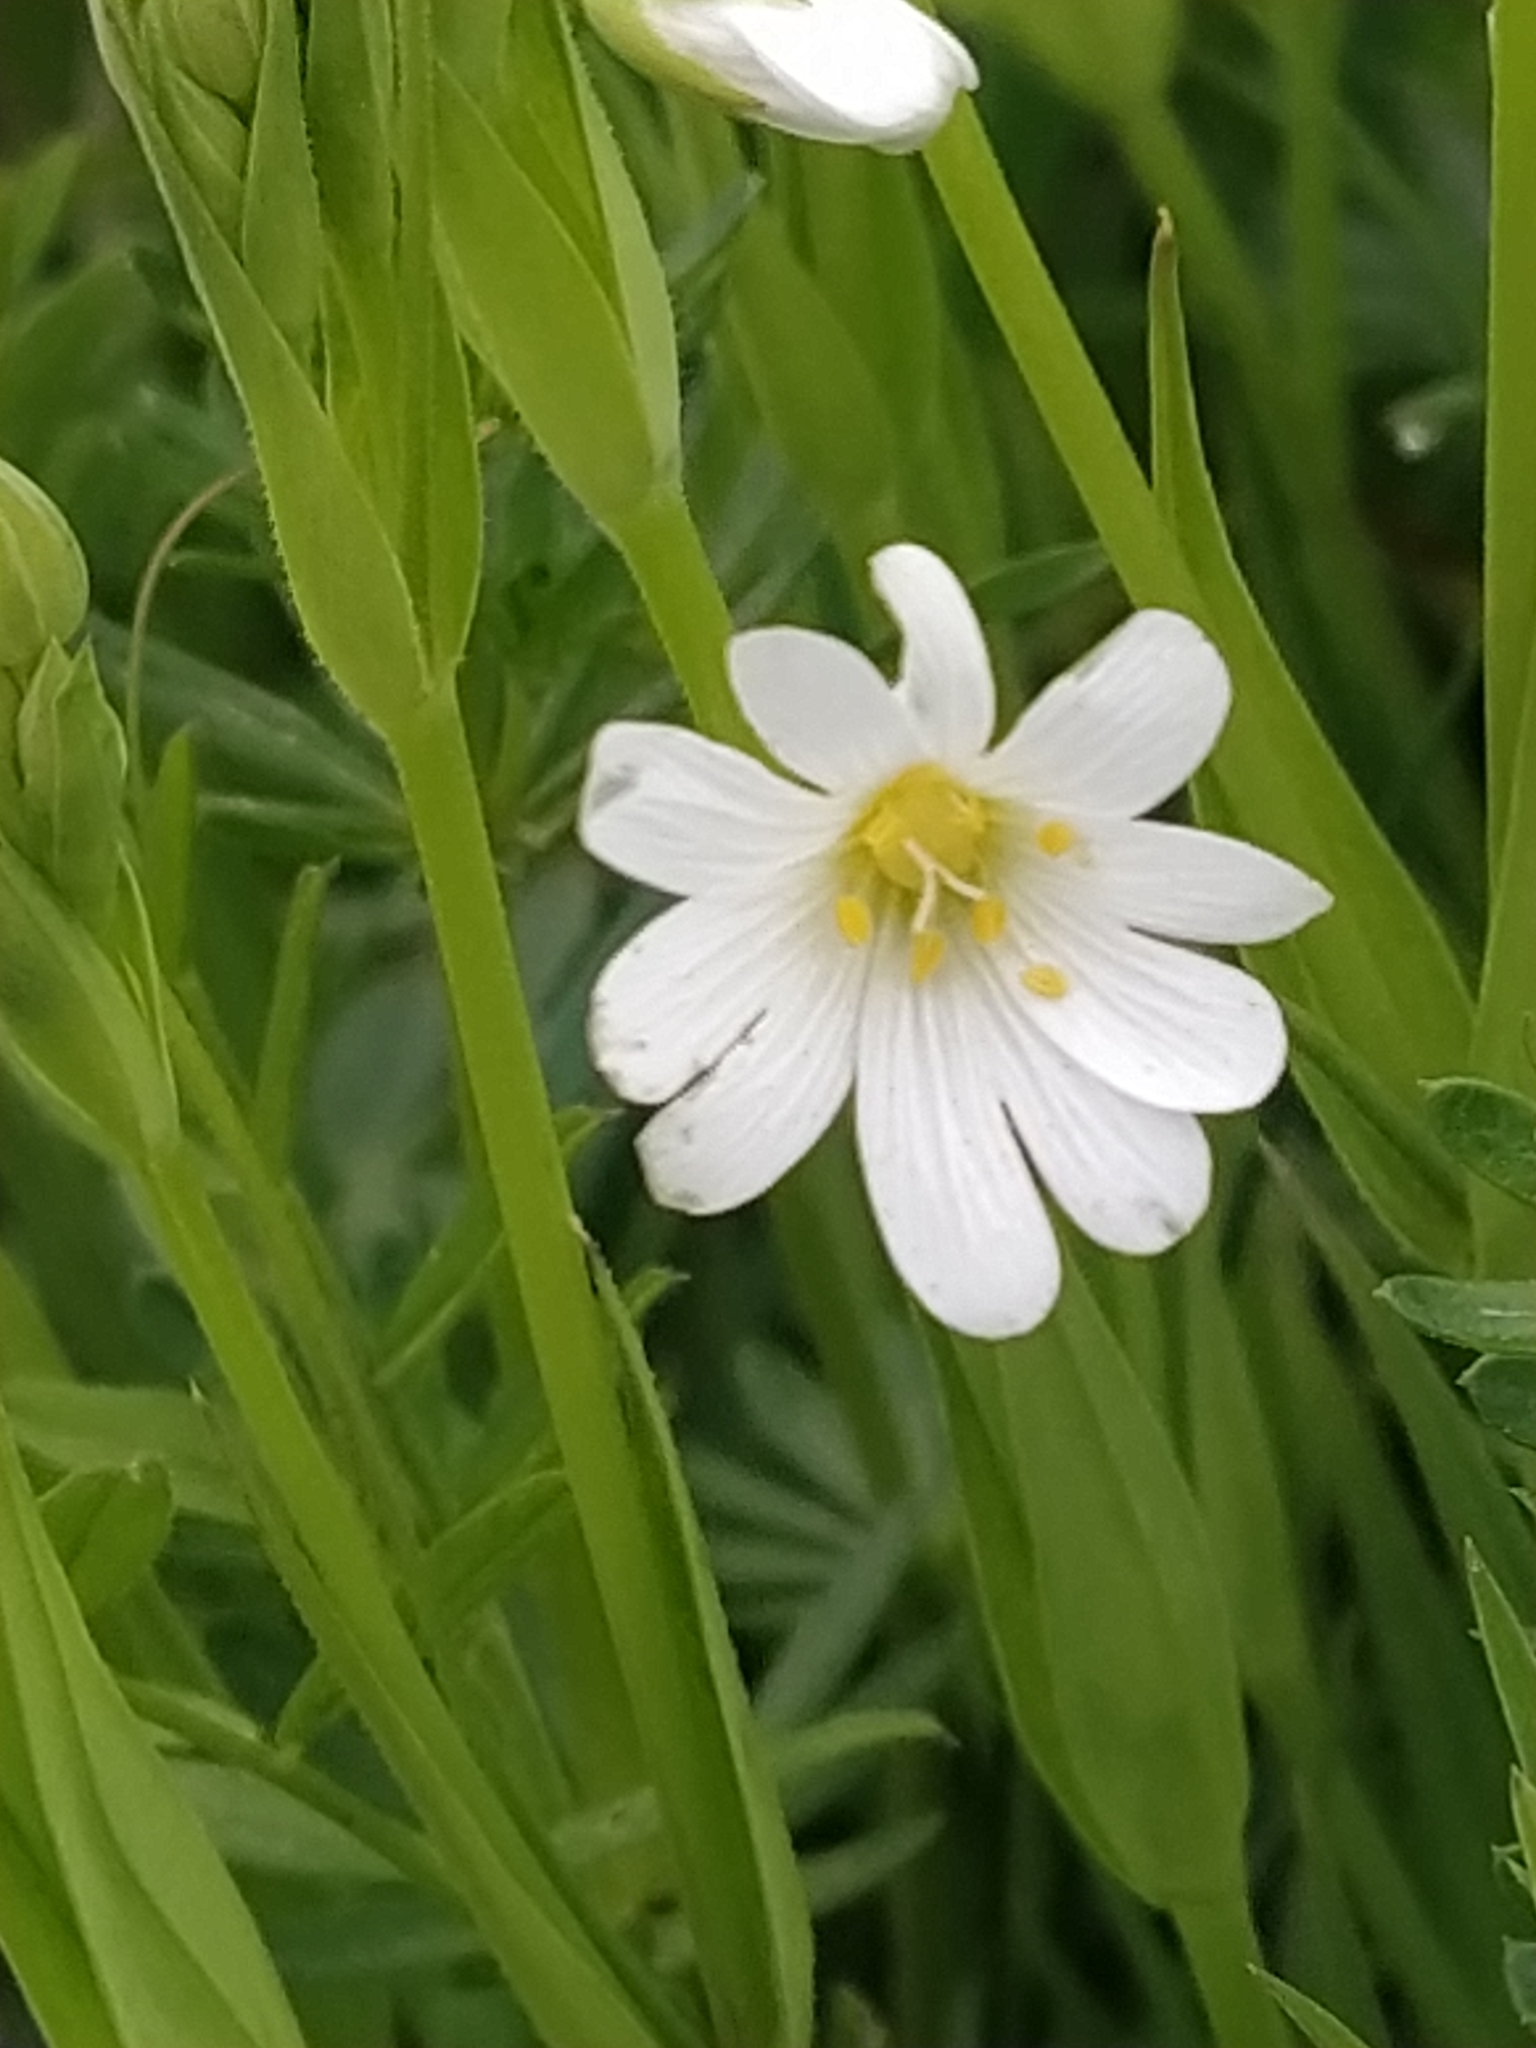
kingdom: Plantae
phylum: Tracheophyta
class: Magnoliopsida
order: Caryophyllales
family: Caryophyllaceae
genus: Rabelera
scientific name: Rabelera holostea
